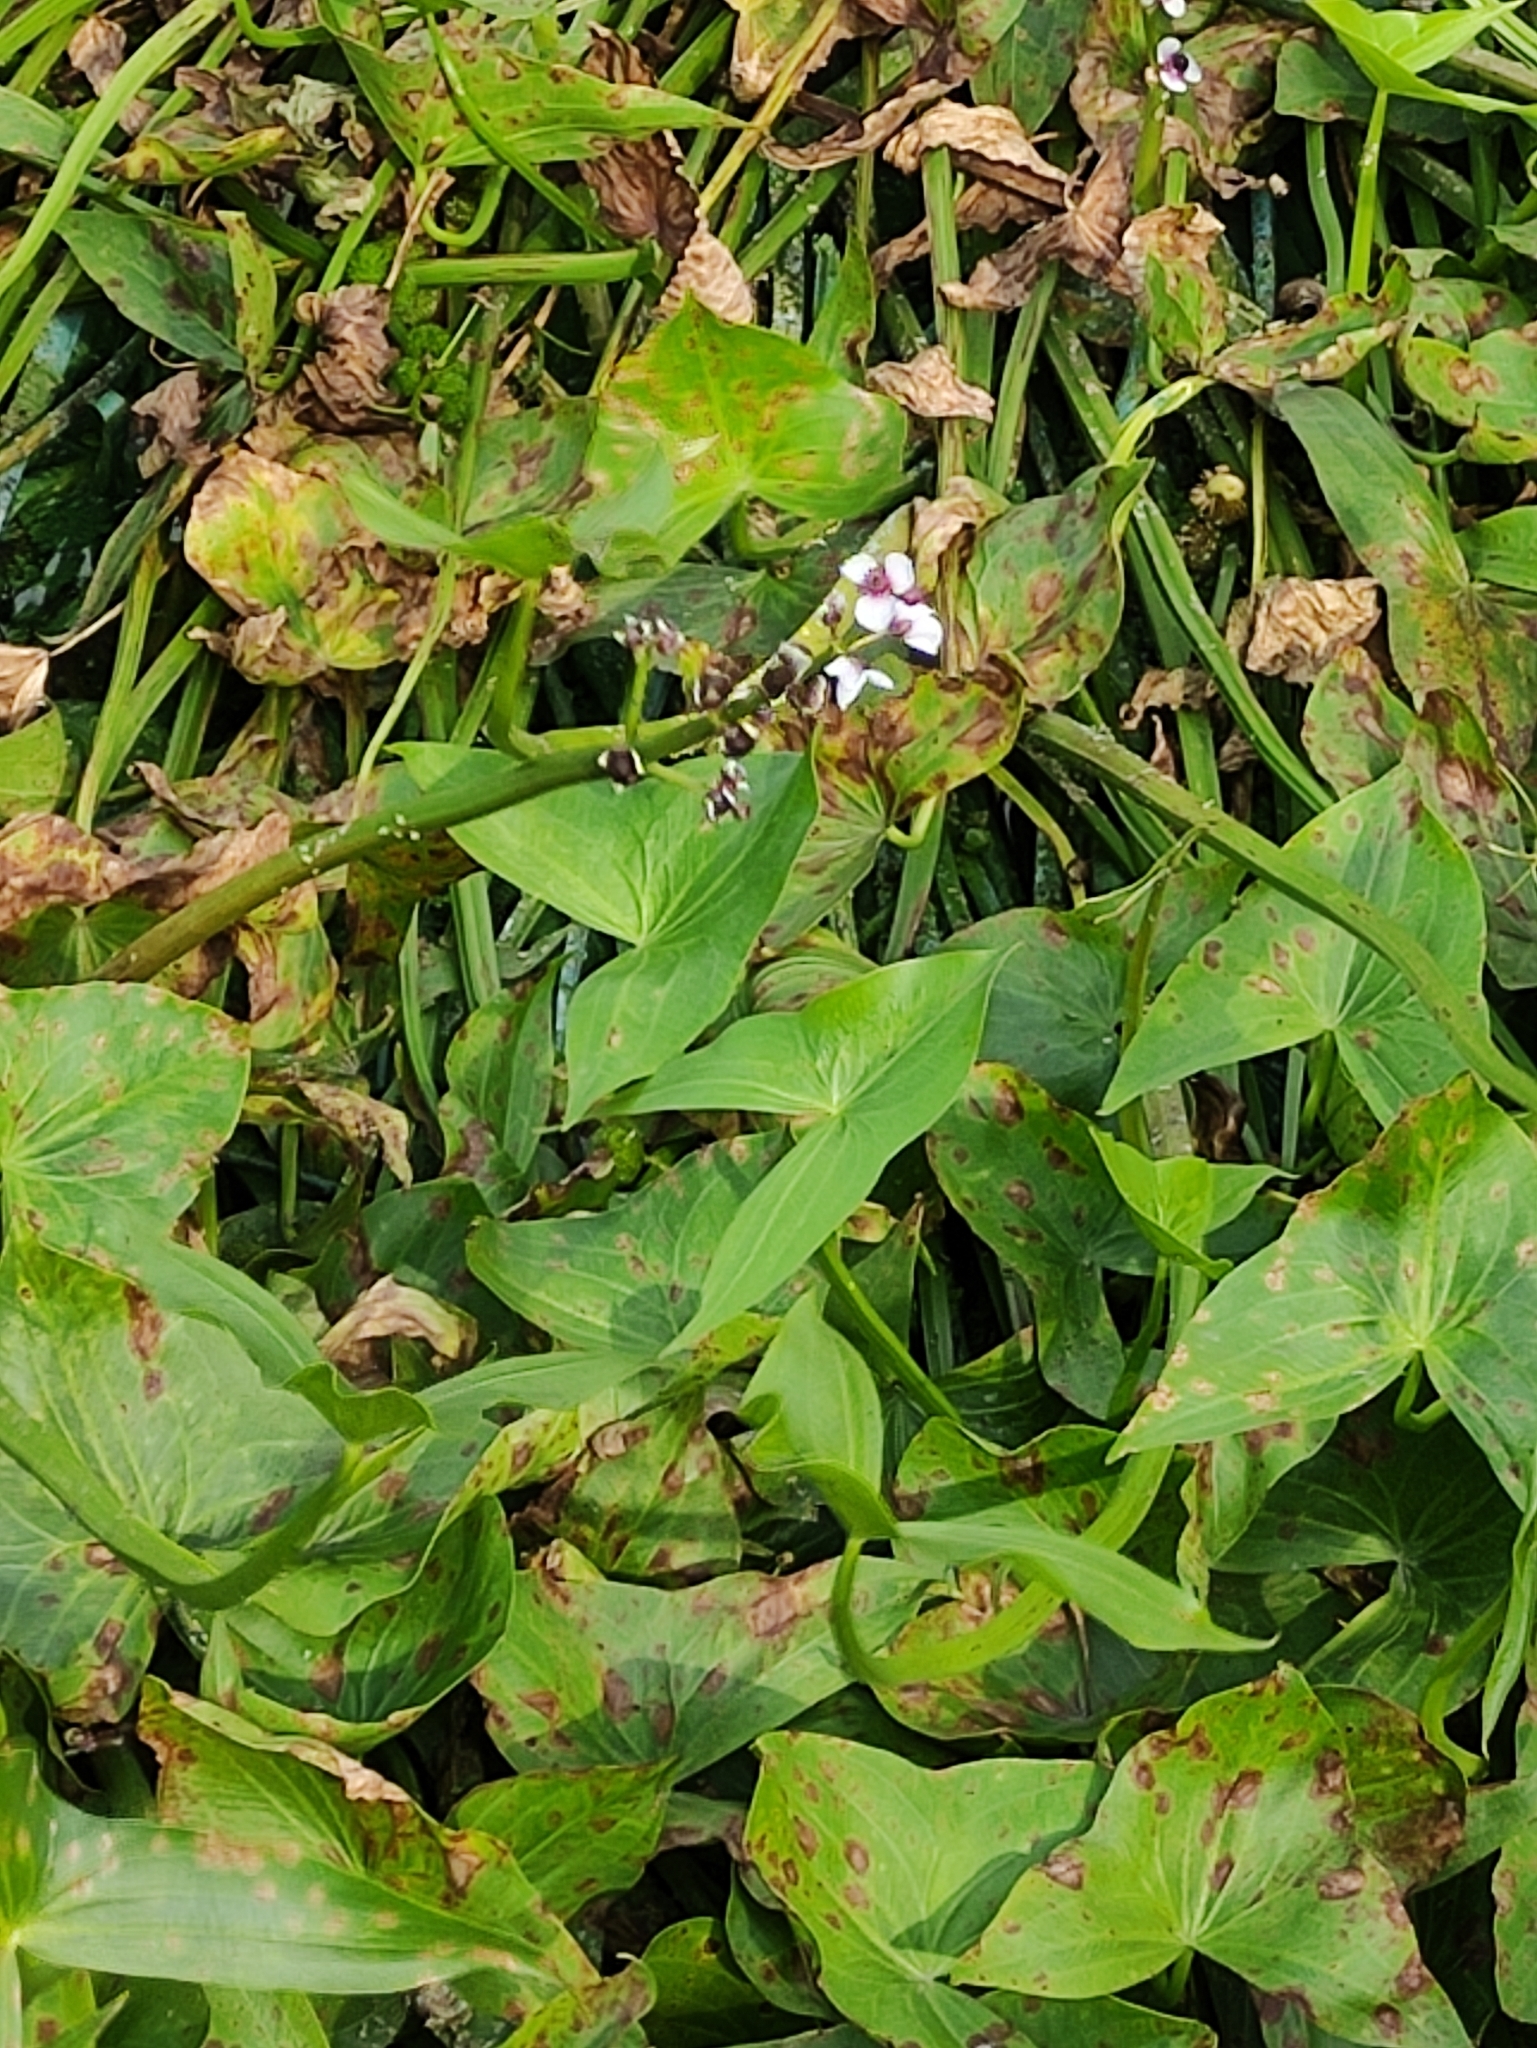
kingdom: Plantae
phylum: Tracheophyta
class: Liliopsida
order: Alismatales
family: Alismataceae
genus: Sagittaria
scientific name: Sagittaria sagittifolia
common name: Arrowhead
